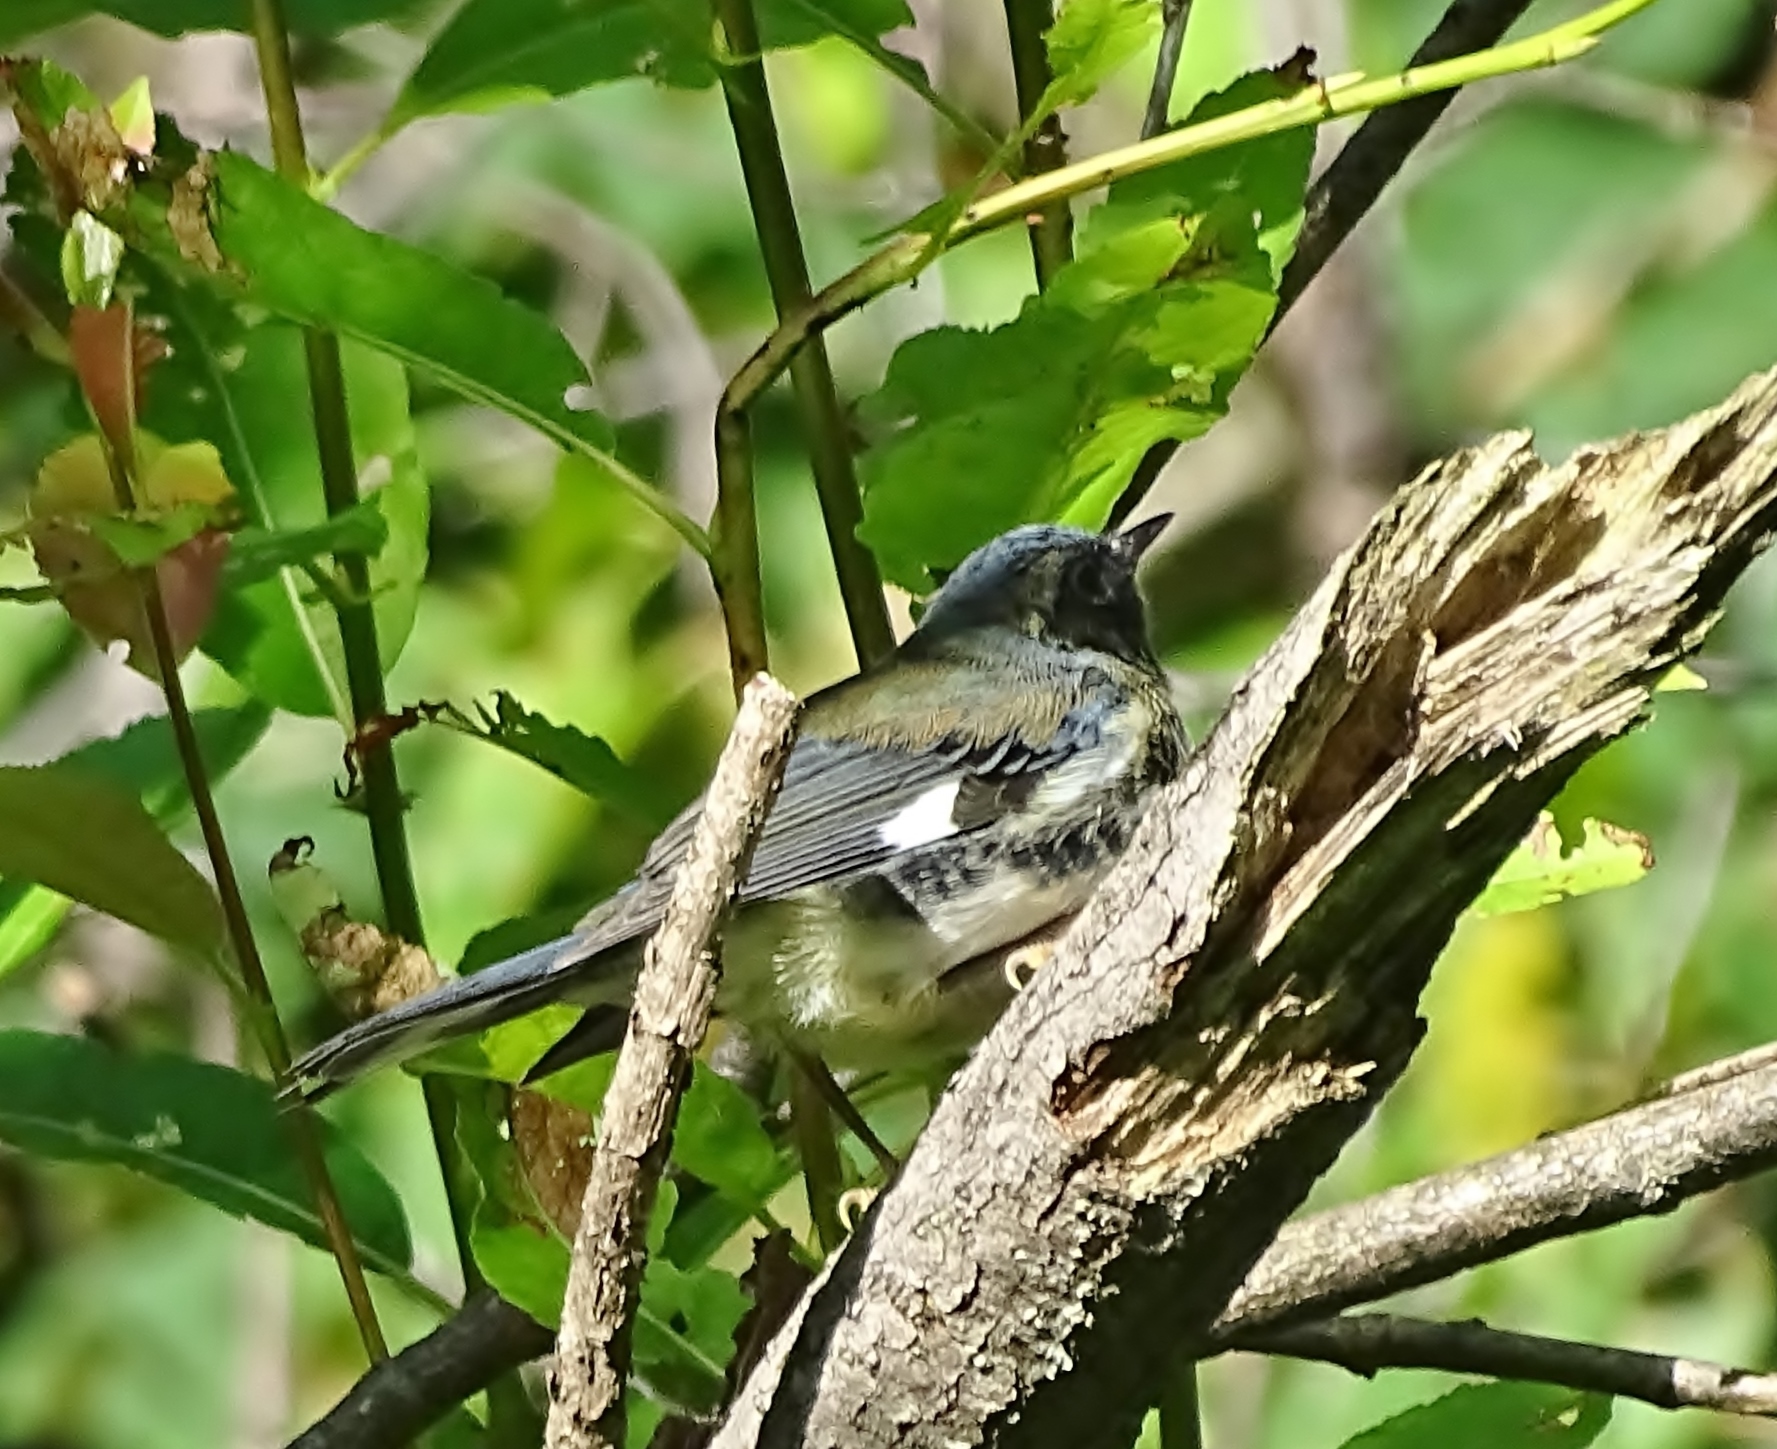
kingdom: Animalia
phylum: Chordata
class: Aves
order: Passeriformes
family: Parulidae
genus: Setophaga
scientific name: Setophaga caerulescens
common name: Black-throated blue warbler
